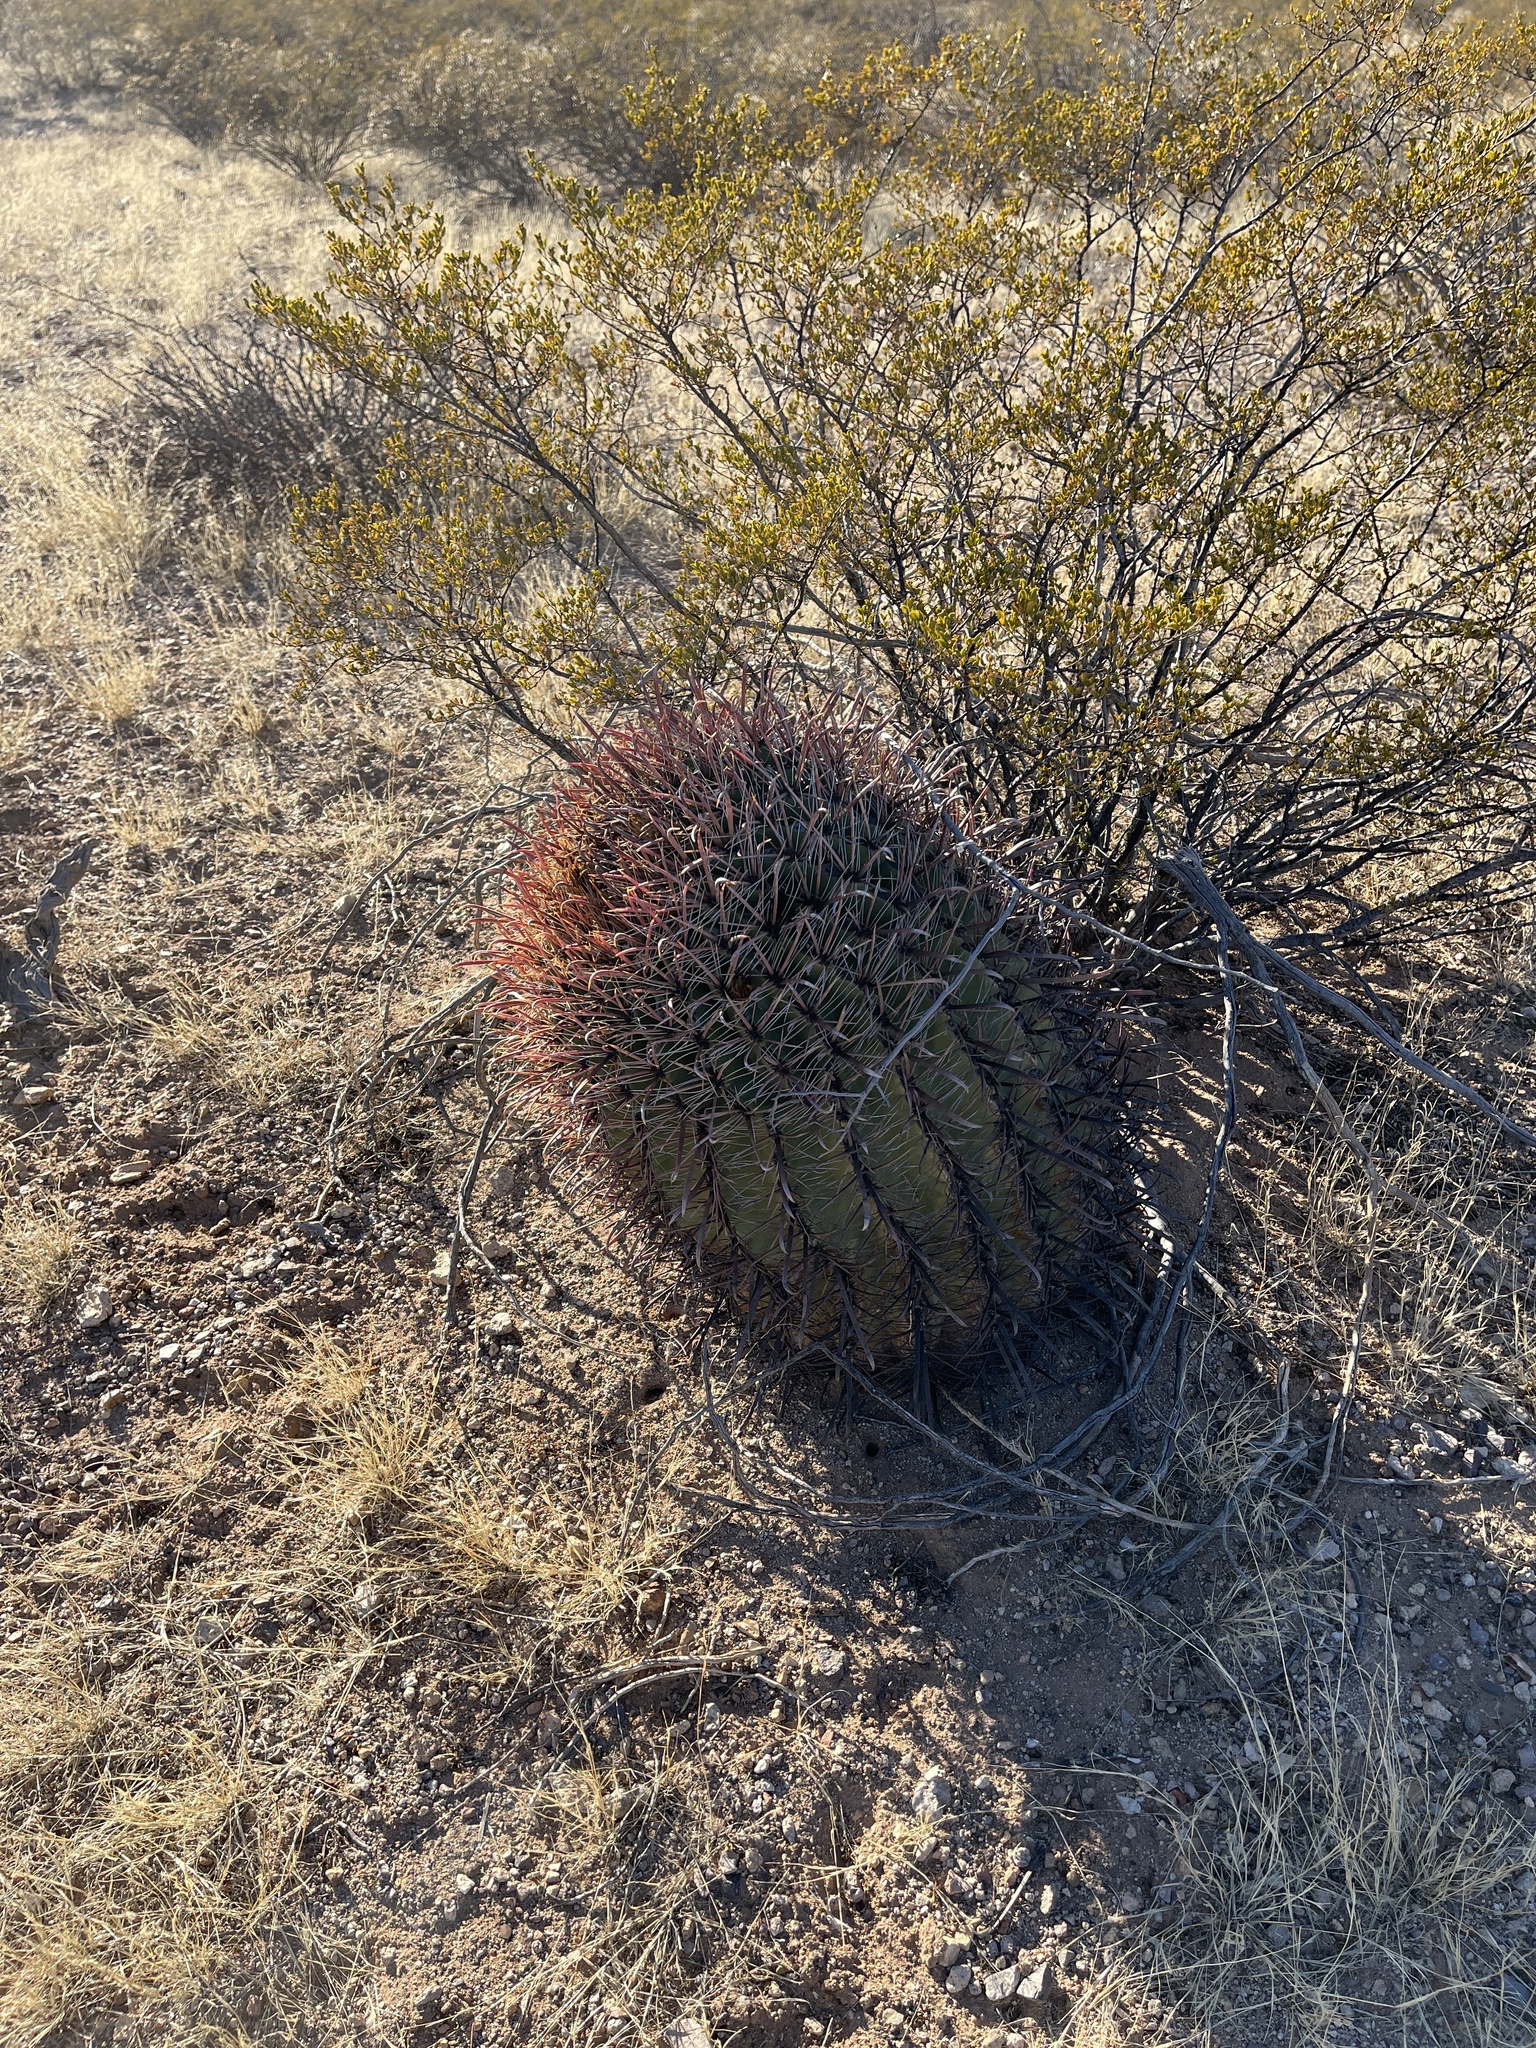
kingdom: Plantae
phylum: Tracheophyta
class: Magnoliopsida
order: Caryophyllales
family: Cactaceae
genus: Ferocactus
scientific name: Ferocactus wislizeni
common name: Candy barrel cactus
